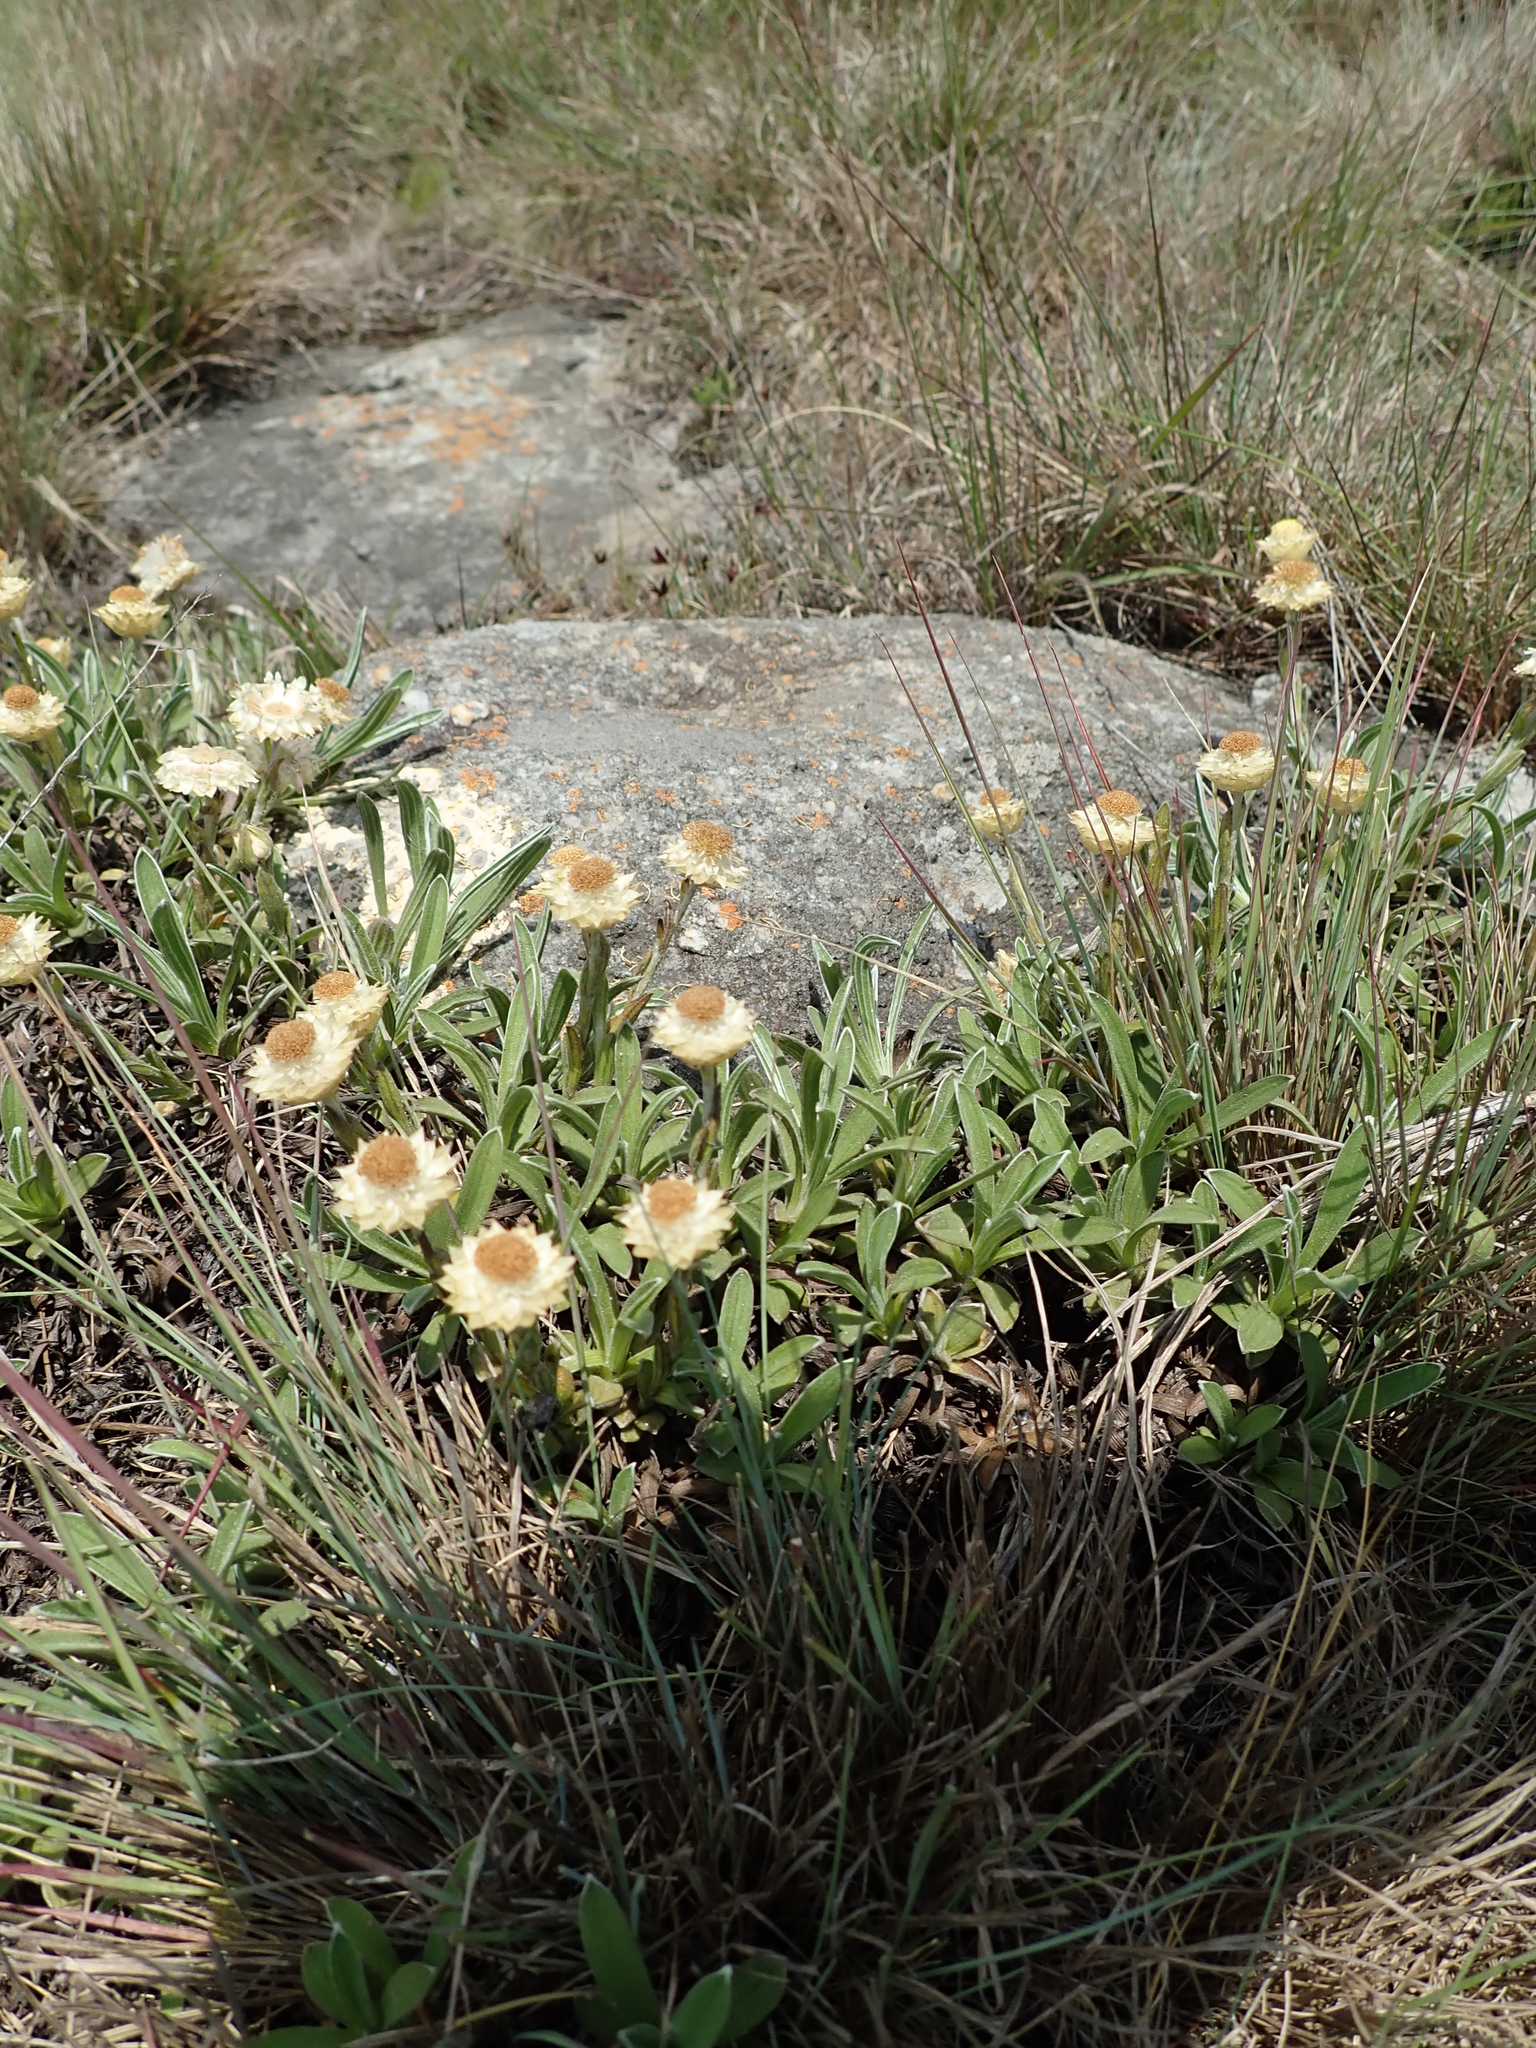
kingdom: Plantae
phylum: Tracheophyta
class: Magnoliopsida
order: Asterales
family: Asteraceae
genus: Helichrysum
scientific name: Helichrysum chionosphaerum
